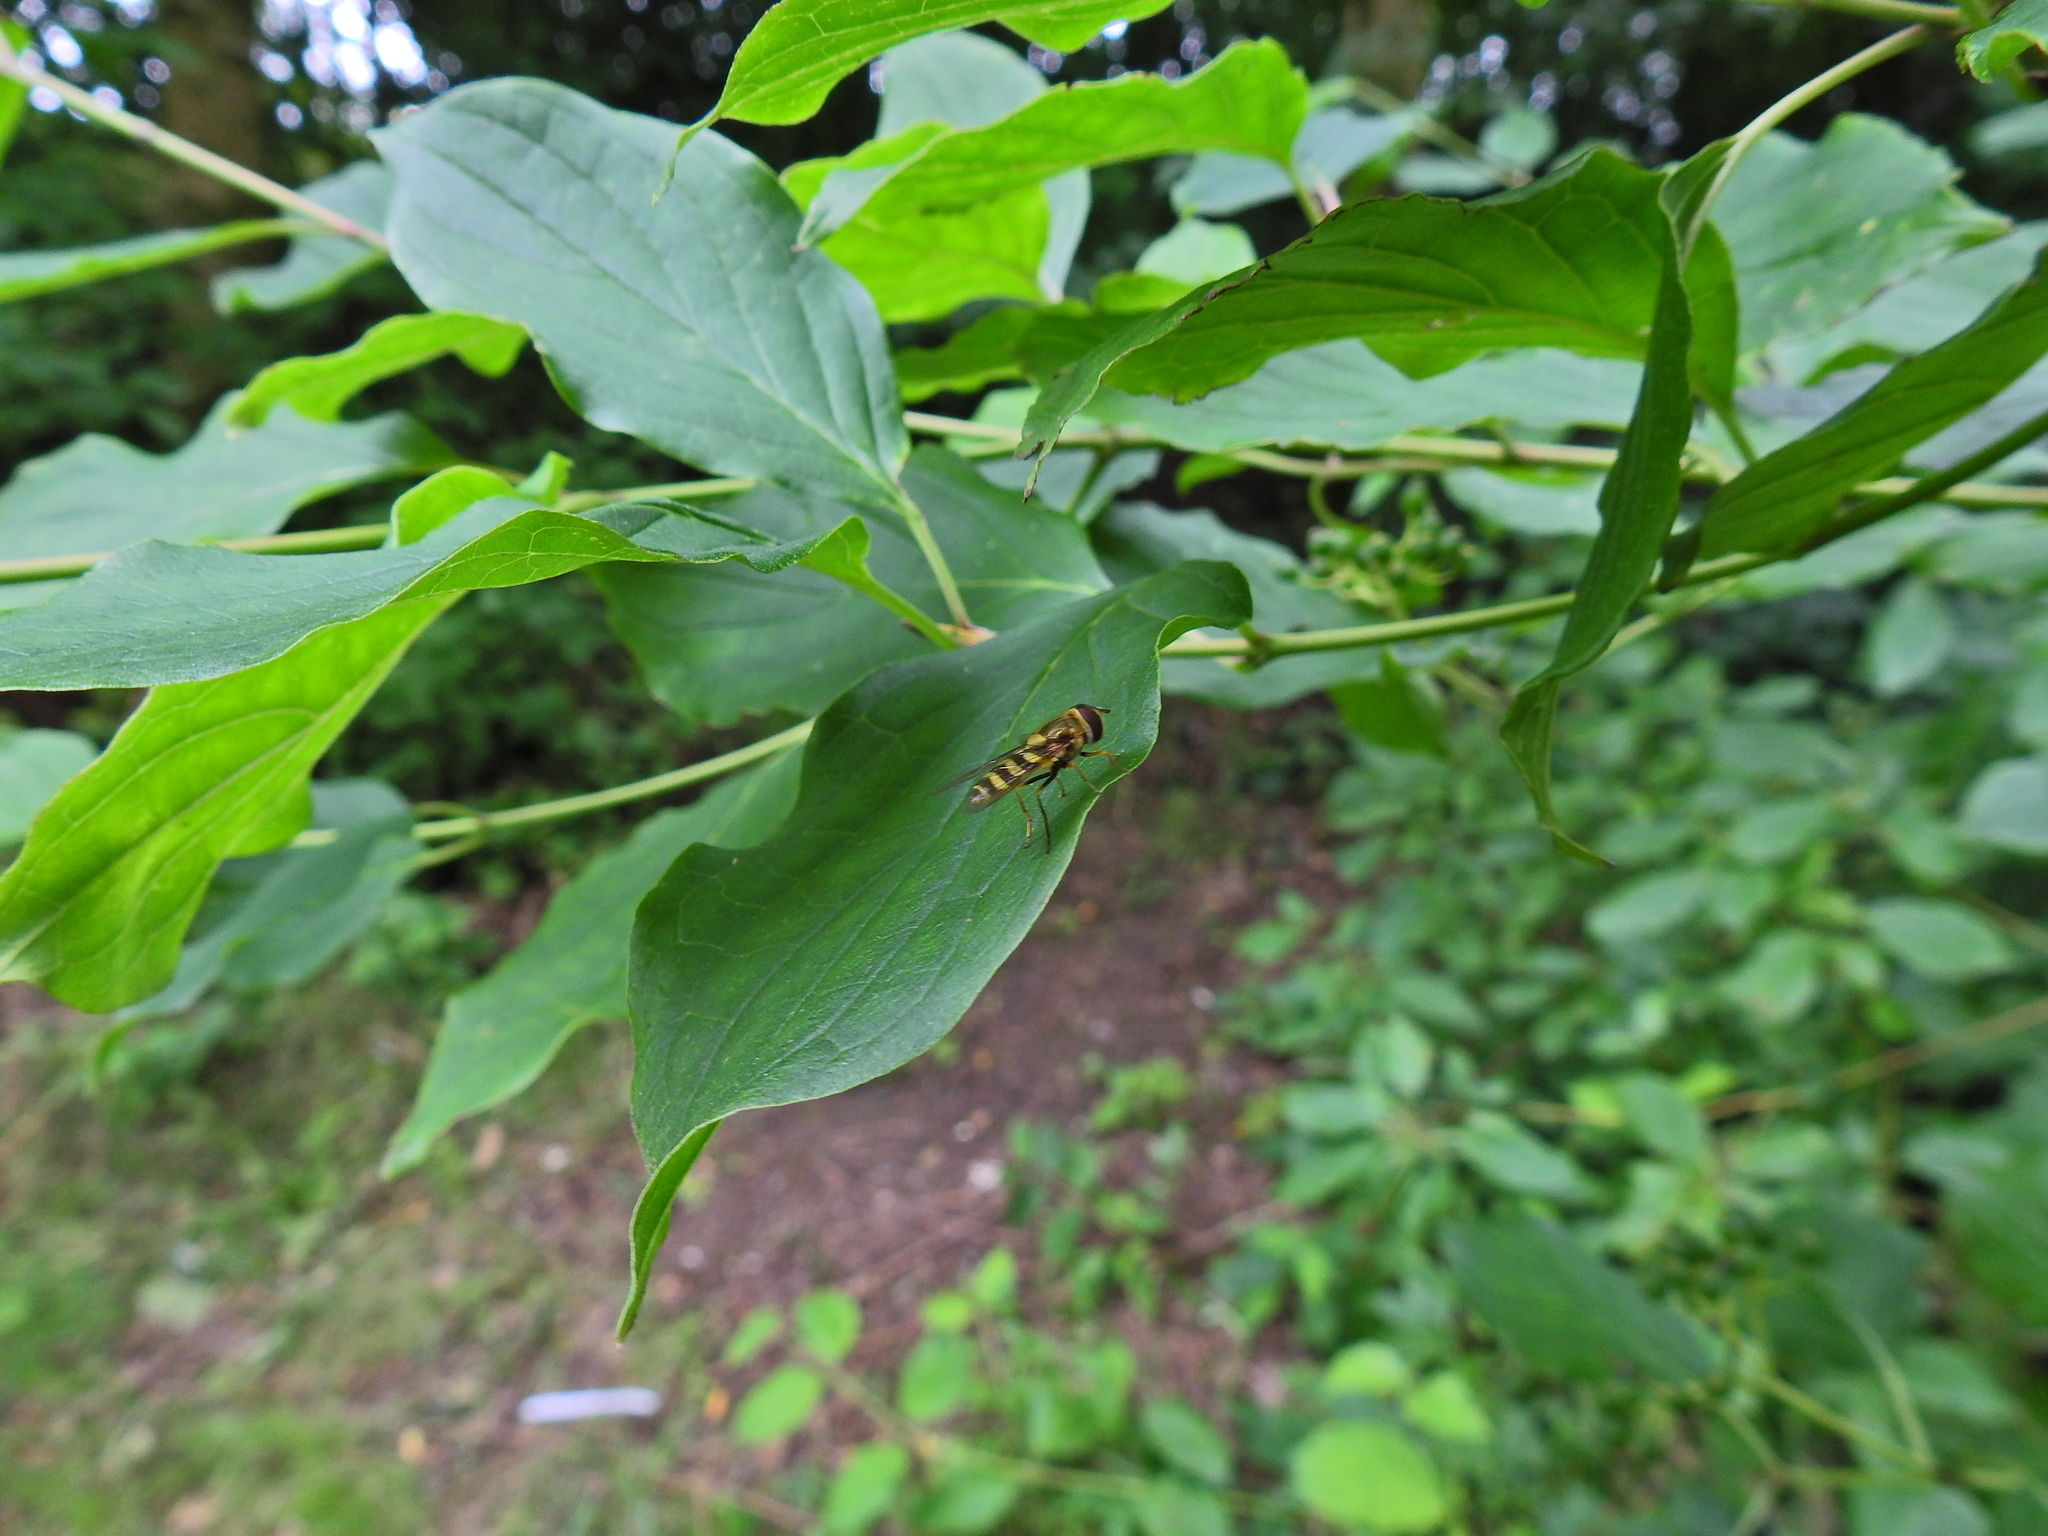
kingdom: Animalia
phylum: Arthropoda
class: Insecta
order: Diptera
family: Syrphidae
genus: Syrphus
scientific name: Syrphus
